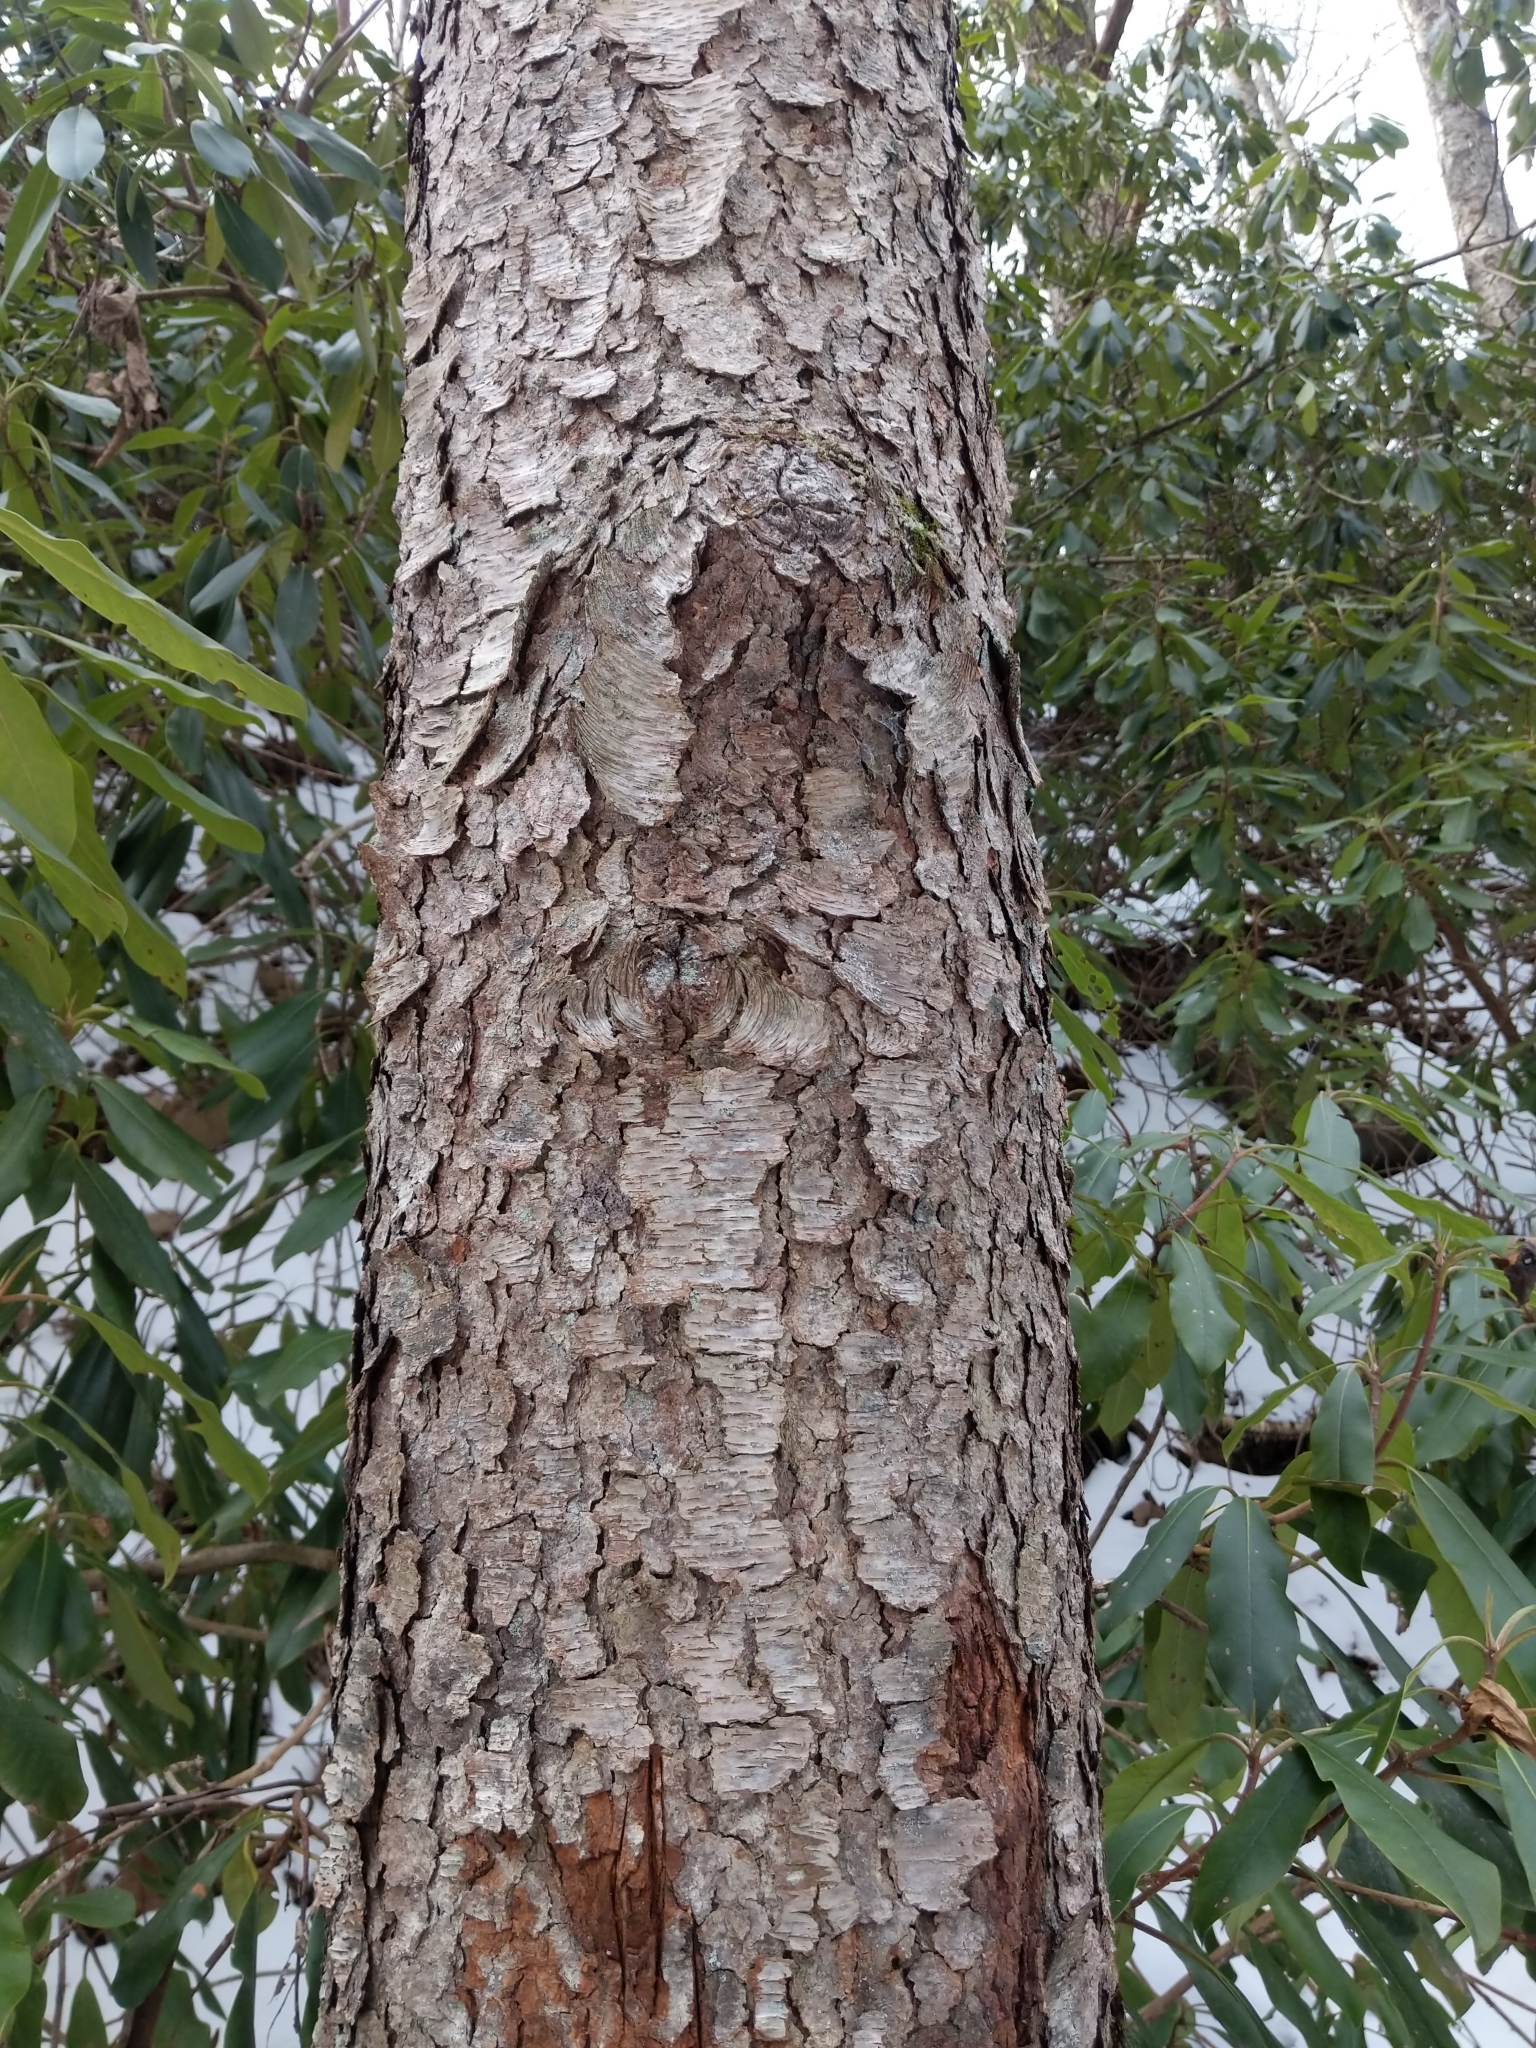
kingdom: Plantae
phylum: Tracheophyta
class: Magnoliopsida
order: Rosales
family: Rosaceae
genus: Prunus
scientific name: Prunus serotina
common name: Black cherry
